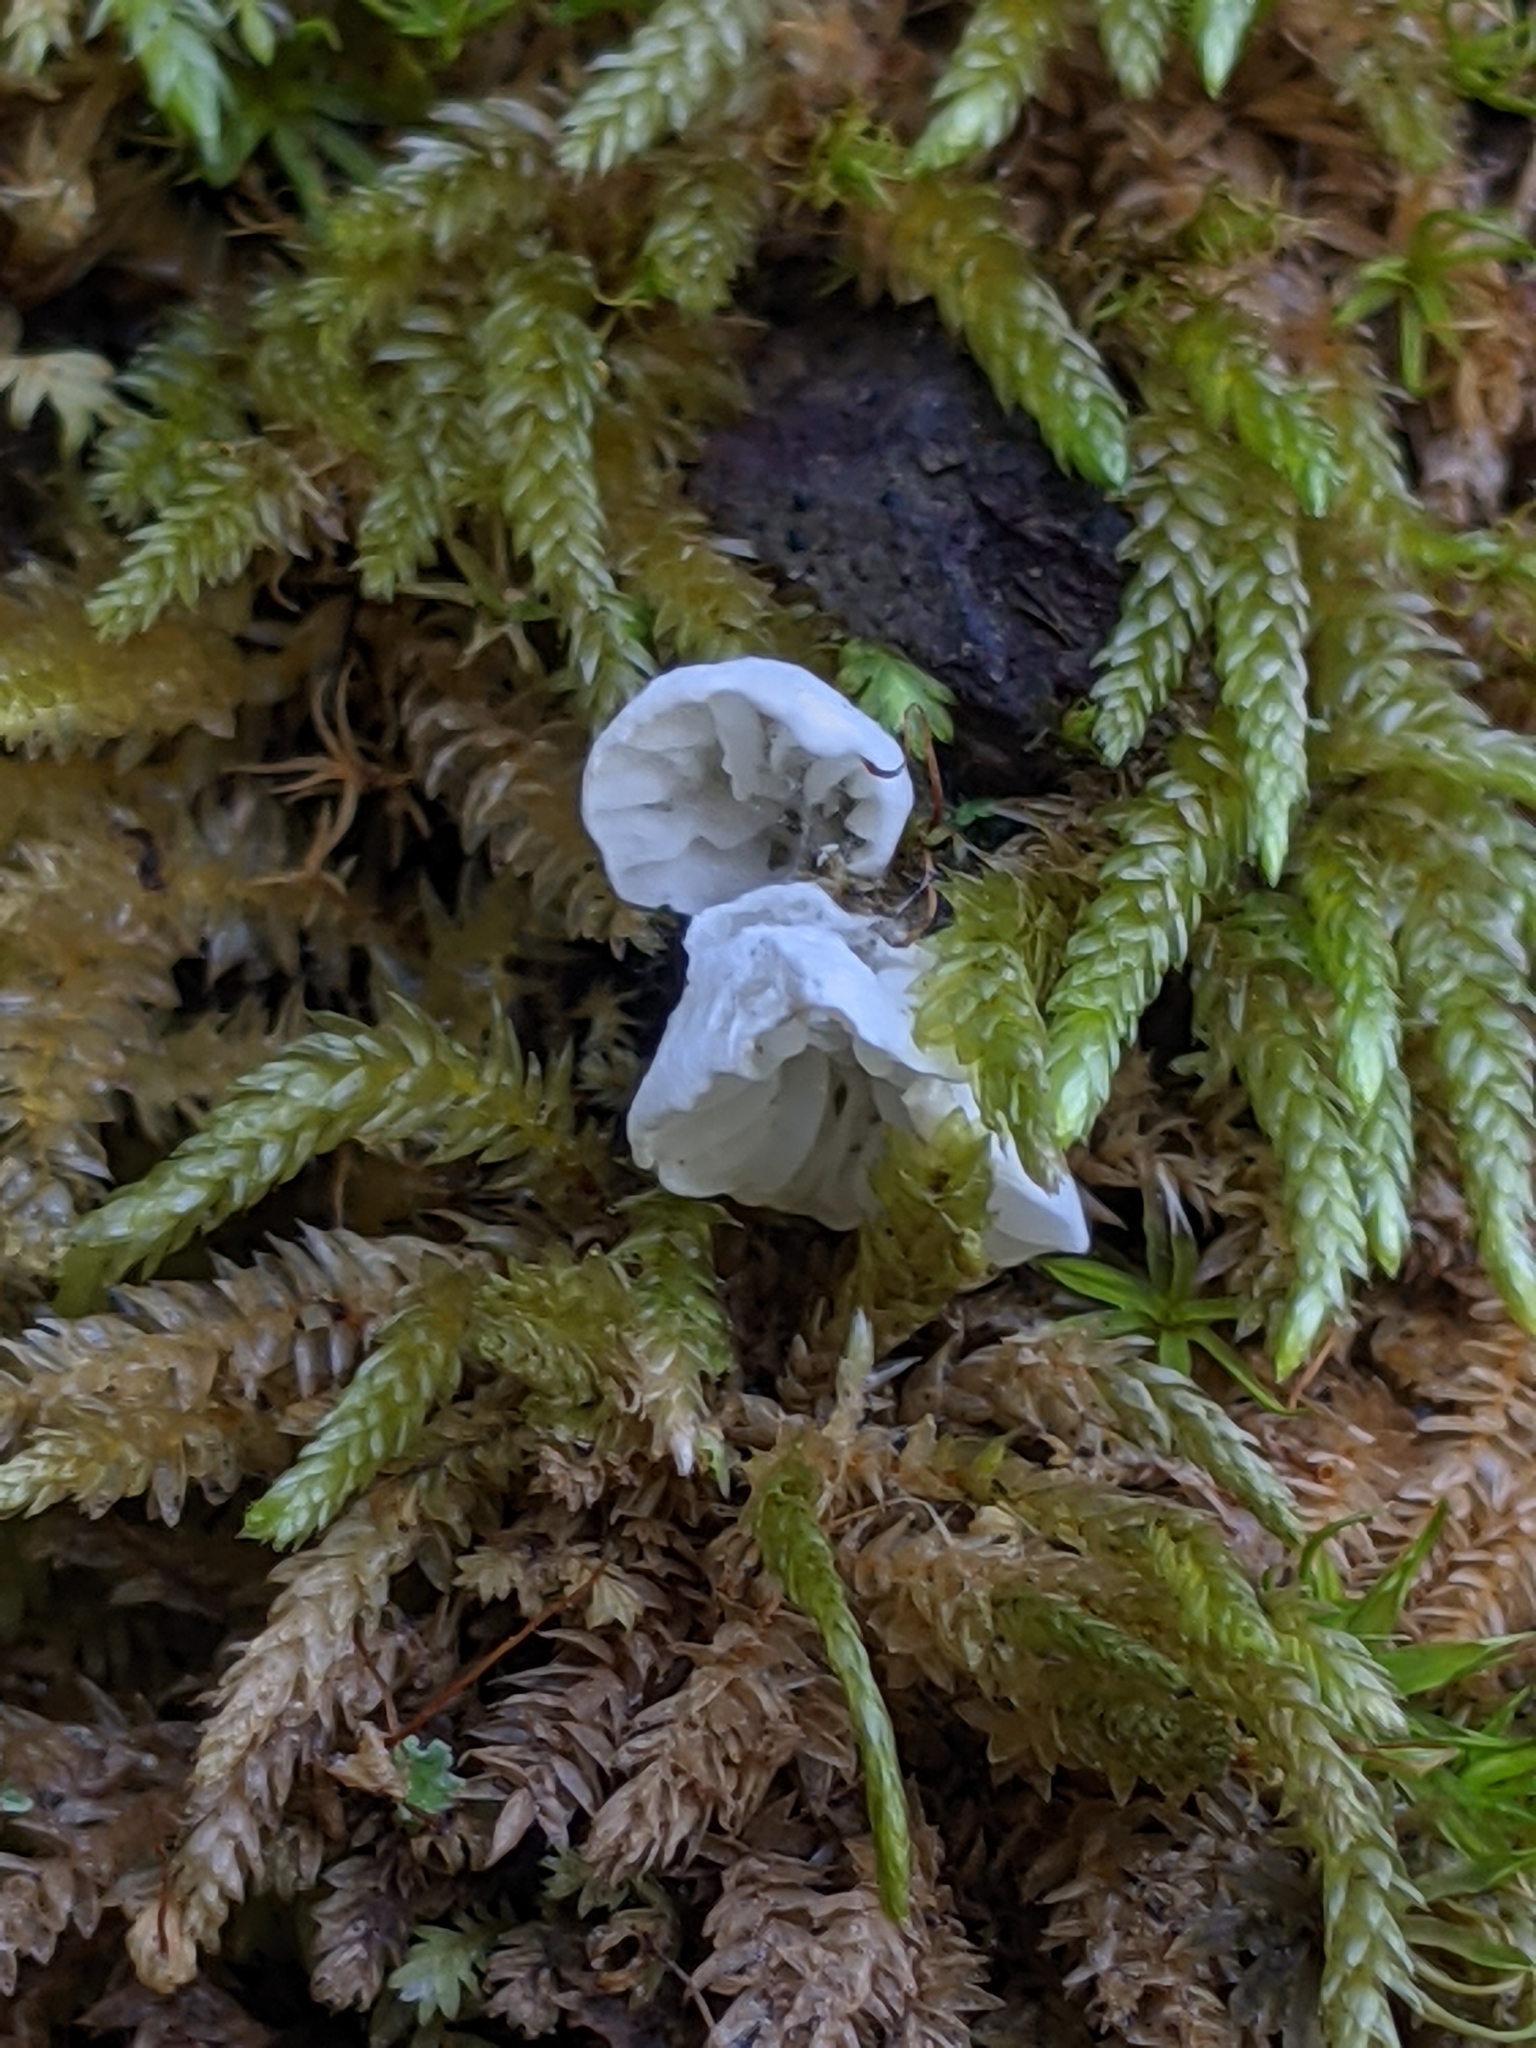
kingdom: Fungi
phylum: Basidiomycota
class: Agaricomycetes
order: Agaricales
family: Tricholomataceae
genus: Rimbachia
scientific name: Rimbachia bryophila
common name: Veined mossear
